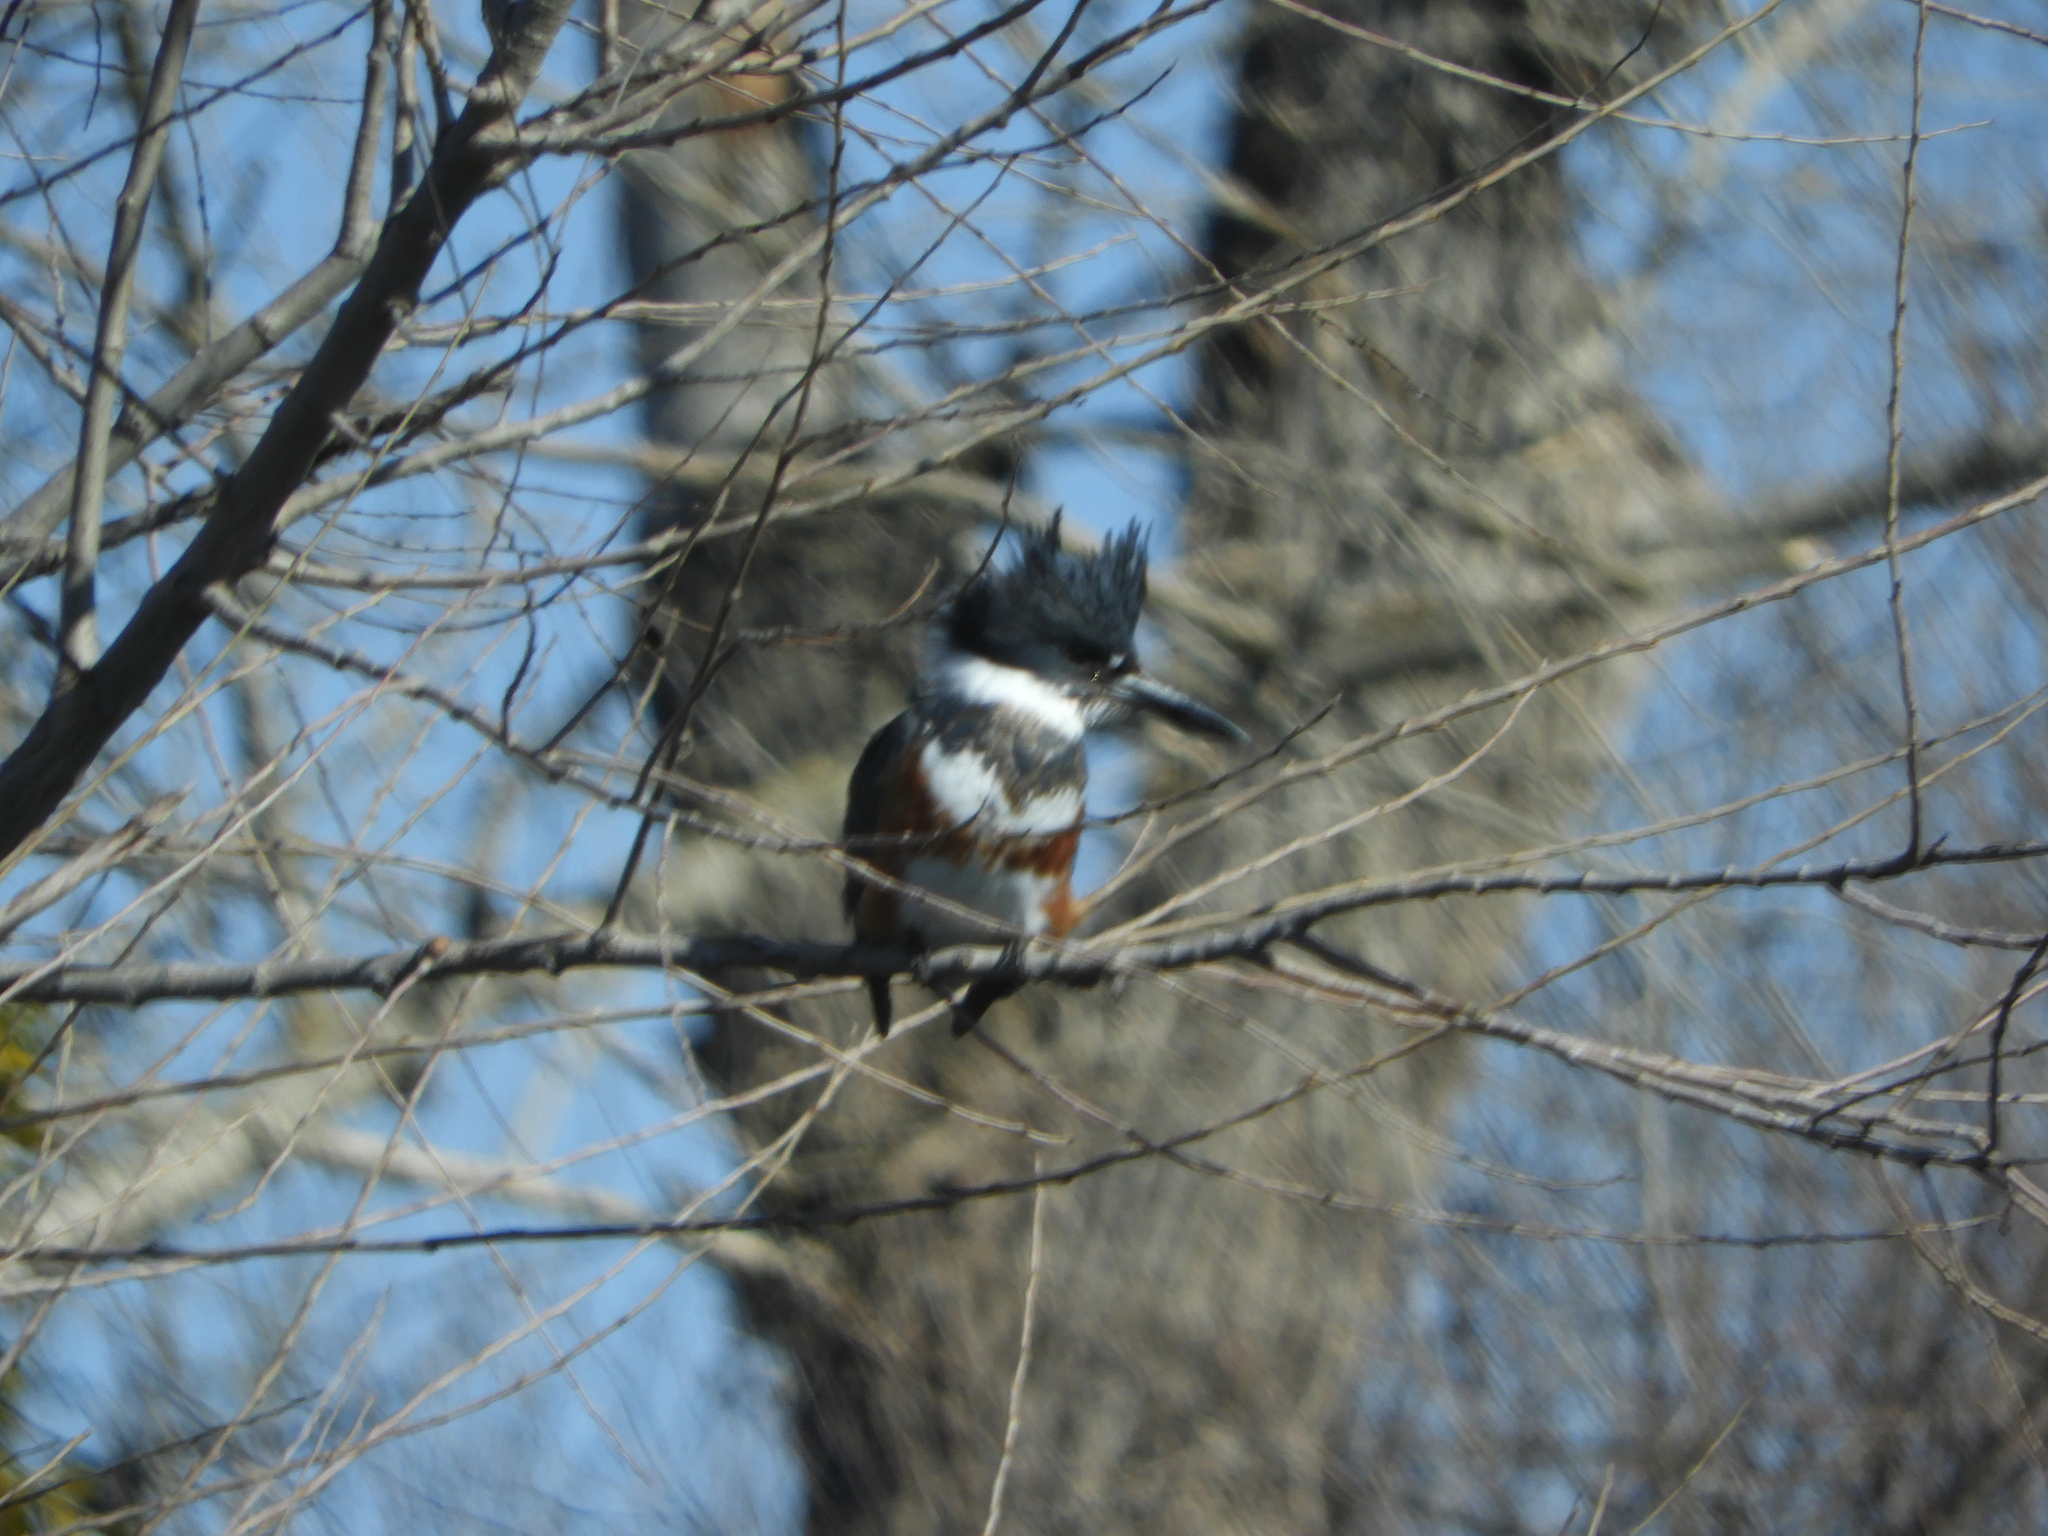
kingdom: Animalia
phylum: Chordata
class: Aves
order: Coraciiformes
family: Alcedinidae
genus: Megaceryle
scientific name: Megaceryle alcyon
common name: Belted kingfisher
